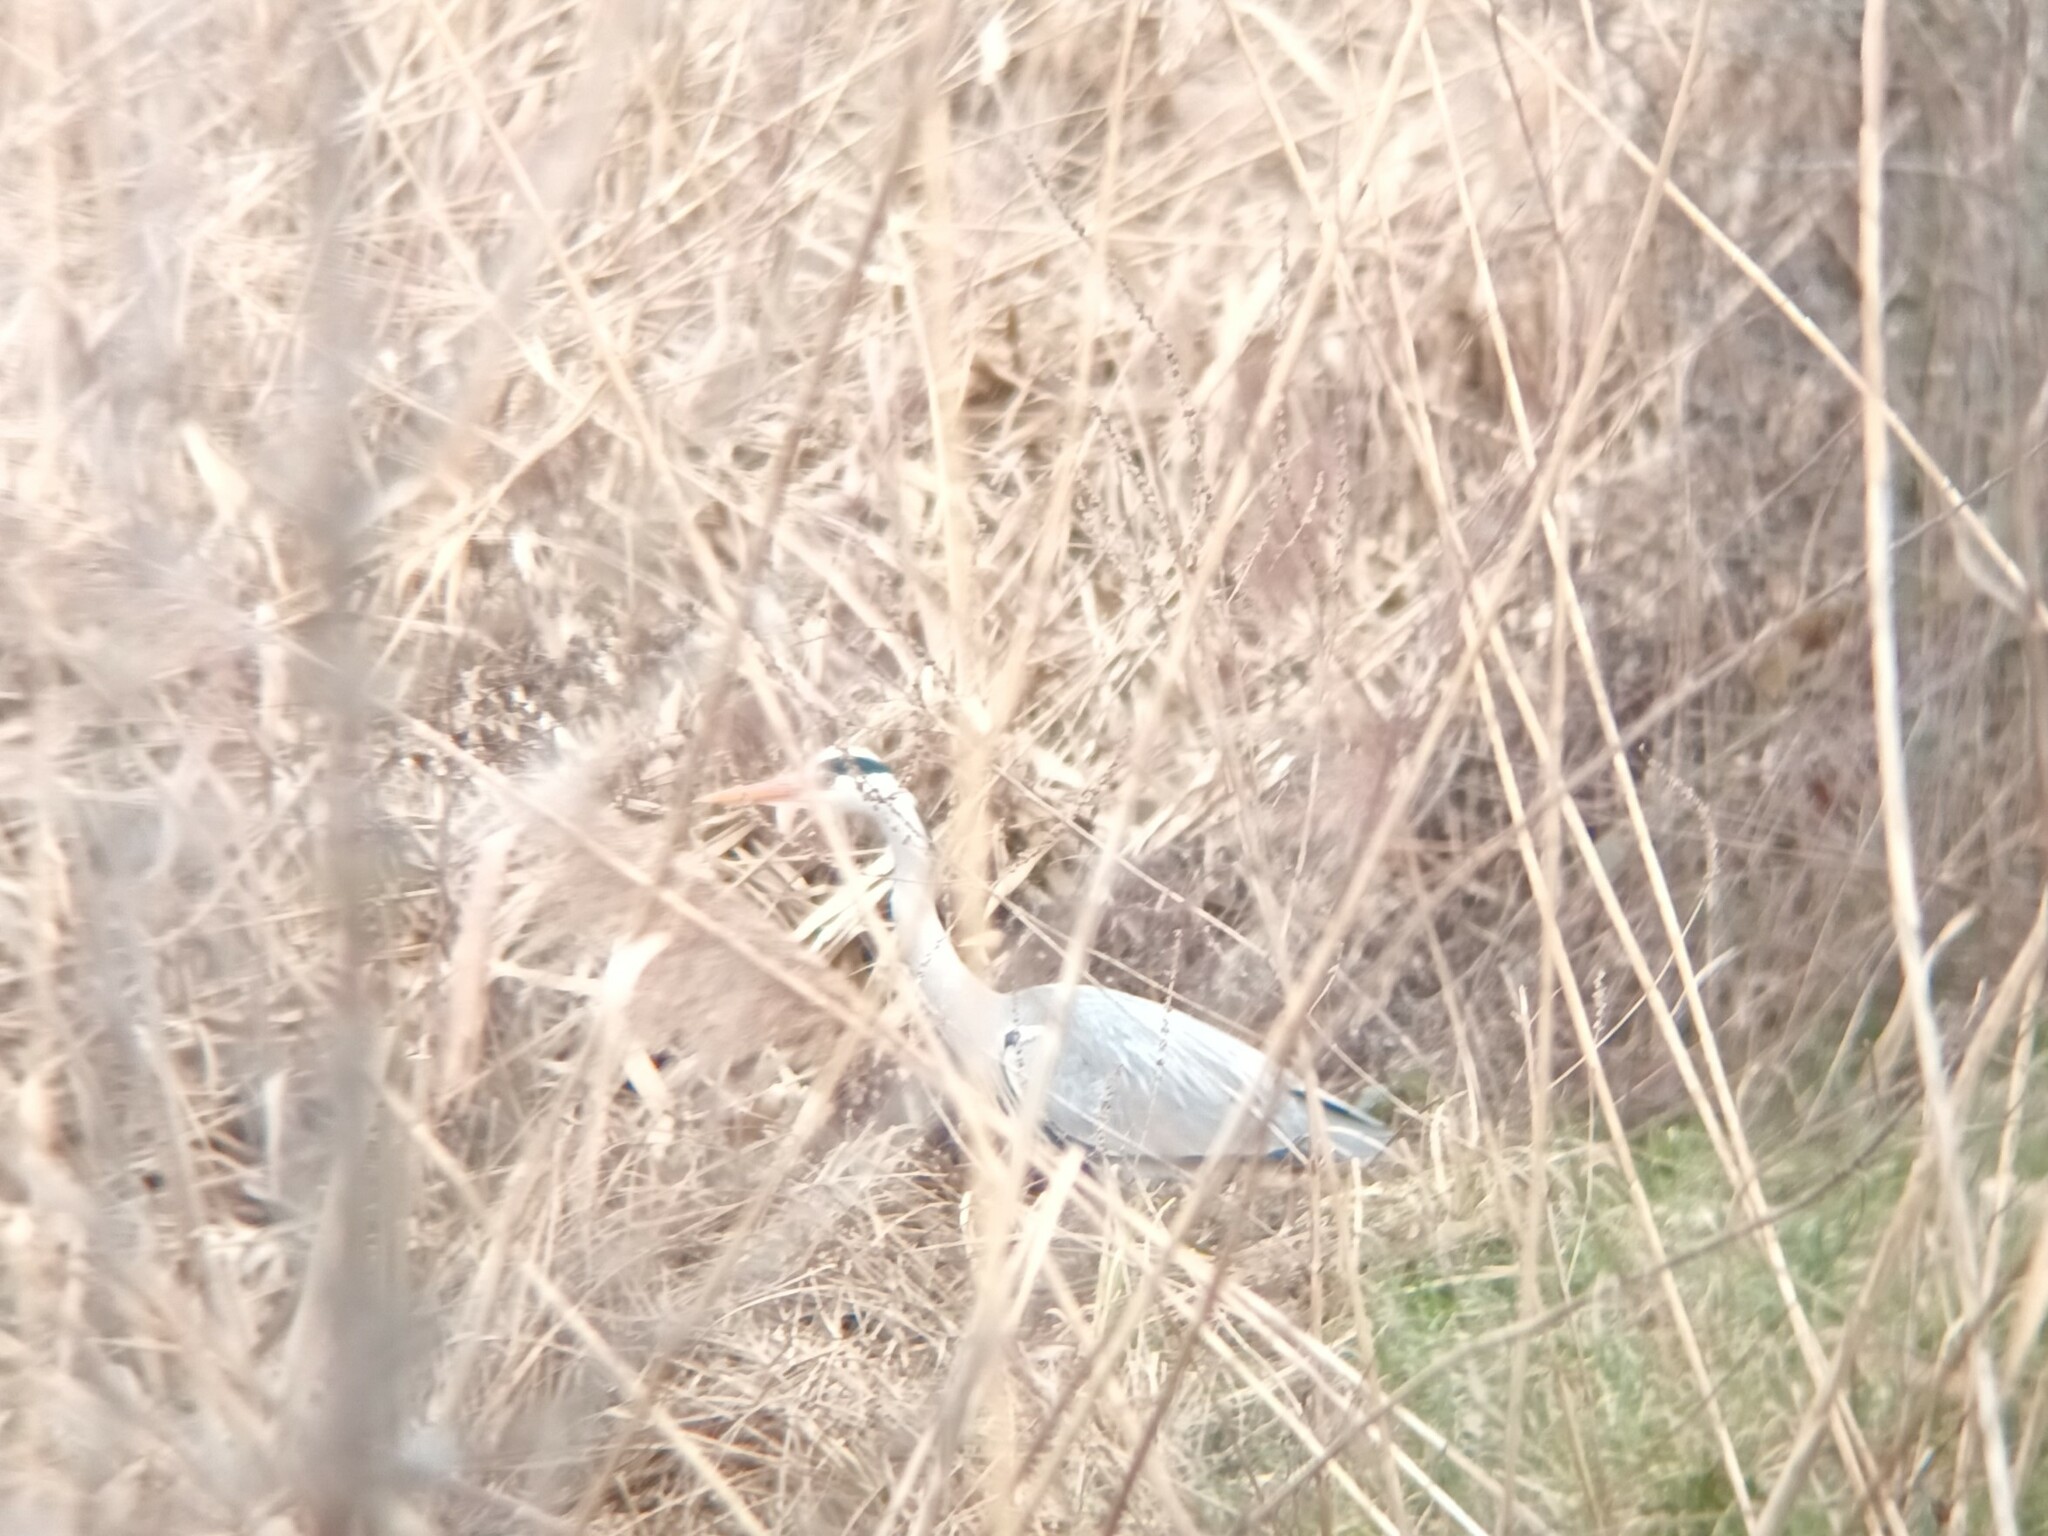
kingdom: Animalia
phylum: Chordata
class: Aves
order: Pelecaniformes
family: Ardeidae
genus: Ardea
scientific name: Ardea cinerea
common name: Grey heron
